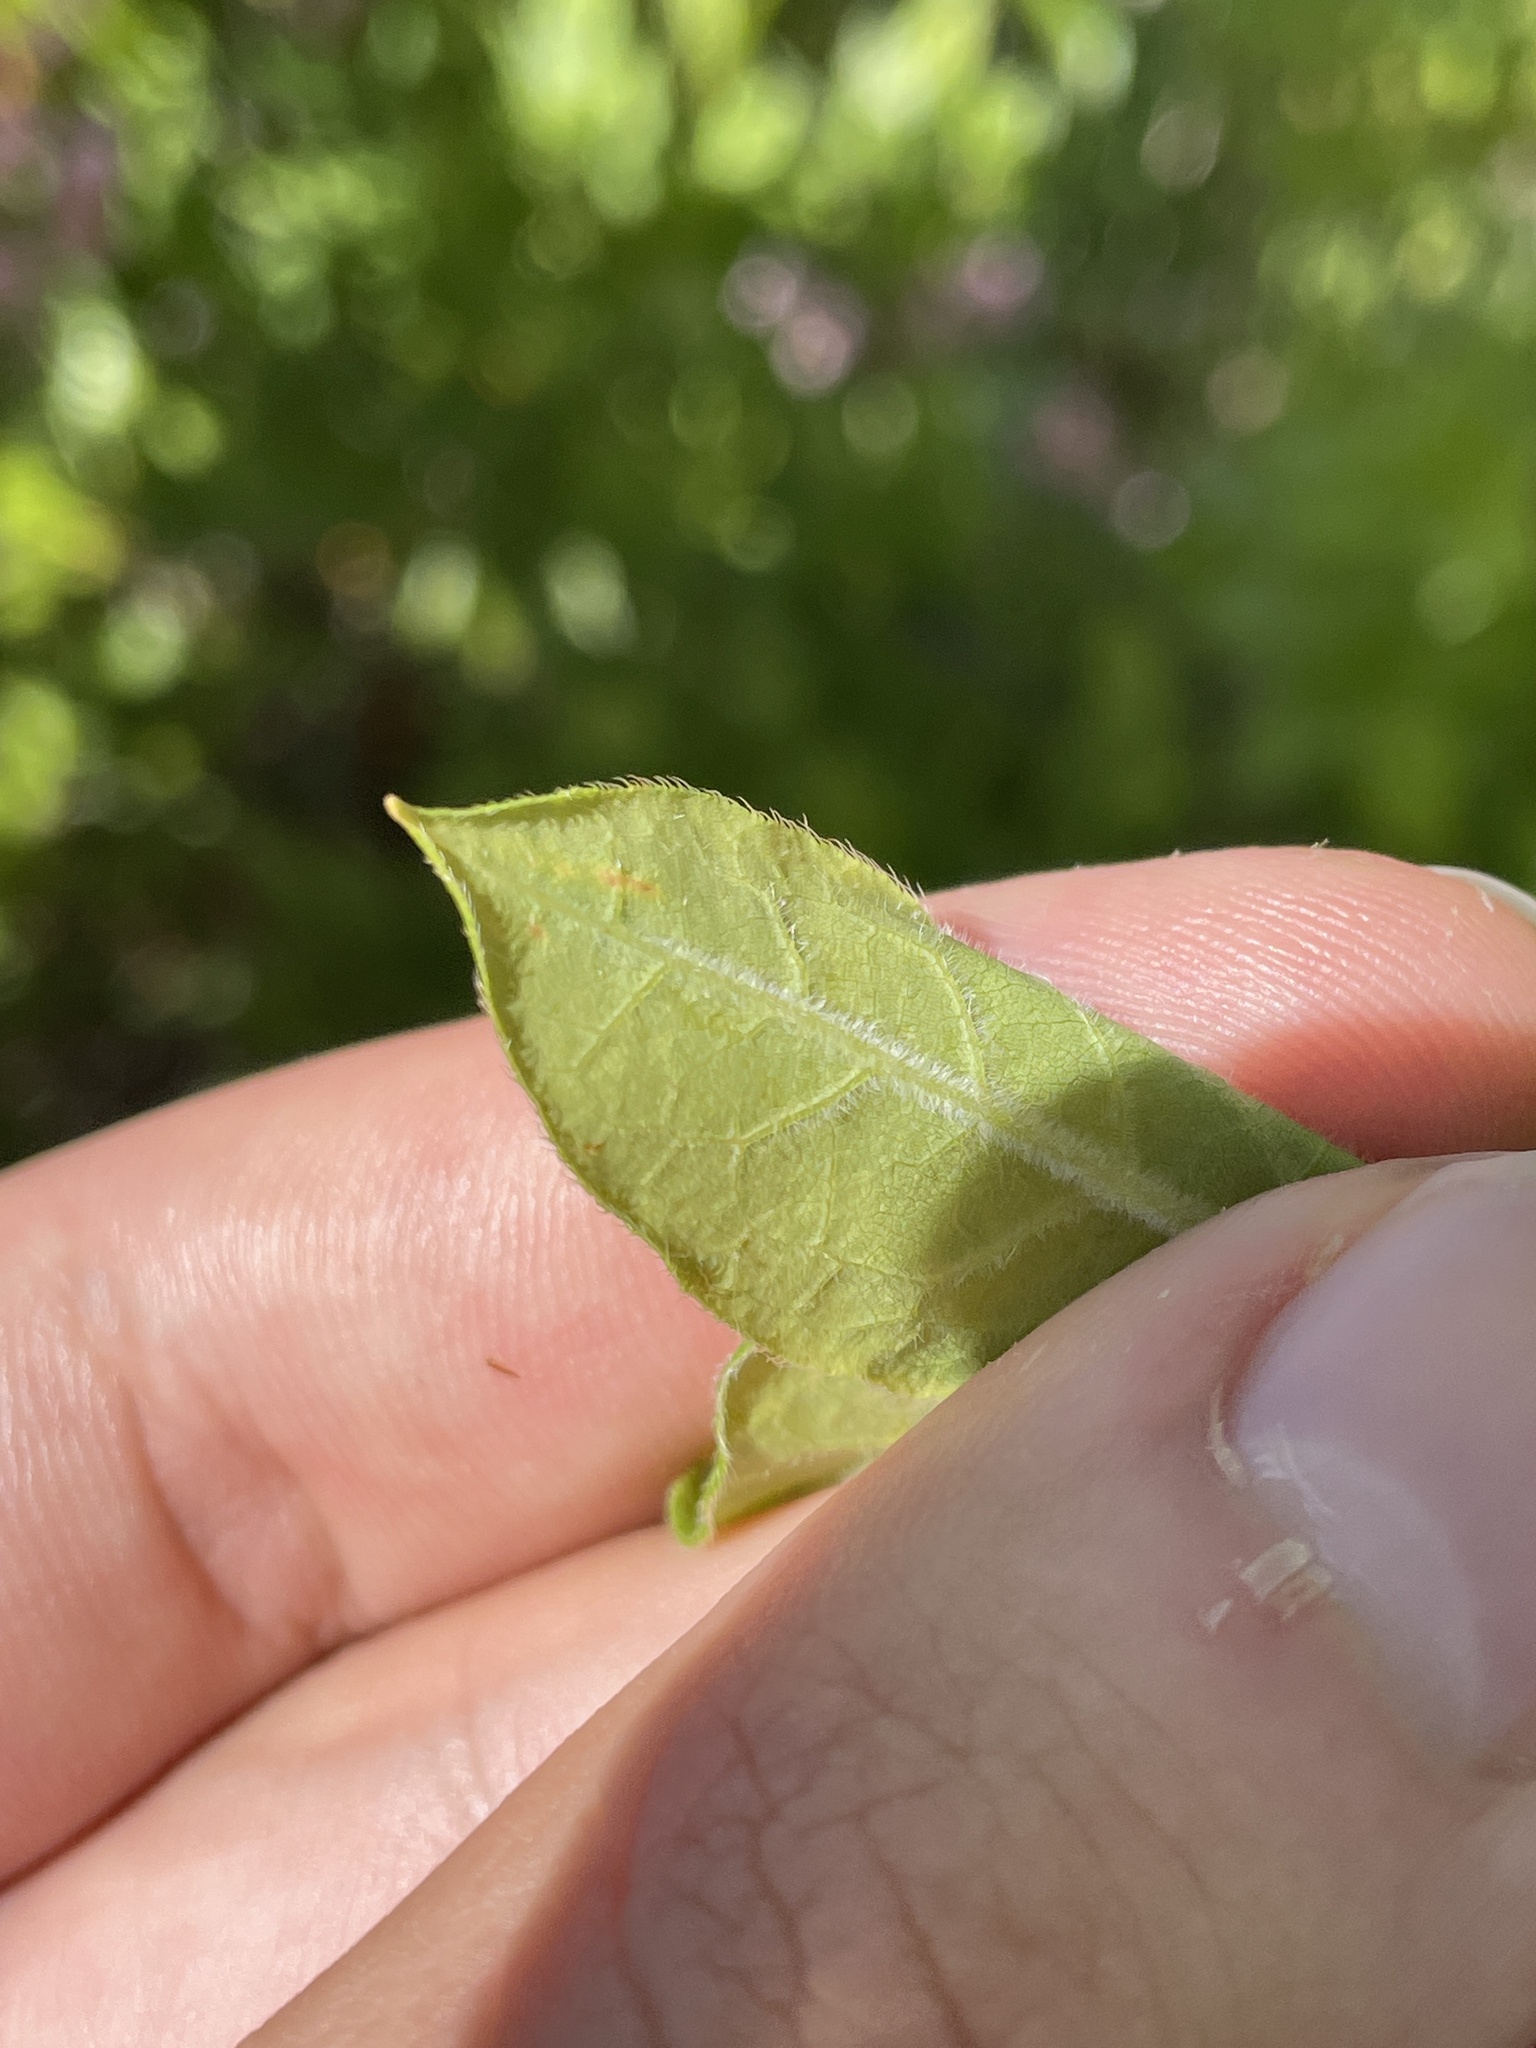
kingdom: Plantae
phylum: Tracheophyta
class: Magnoliopsida
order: Ericales
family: Ericaceae
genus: Rhododendron
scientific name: Rhododendron calendulaceum
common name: Flame azalea
